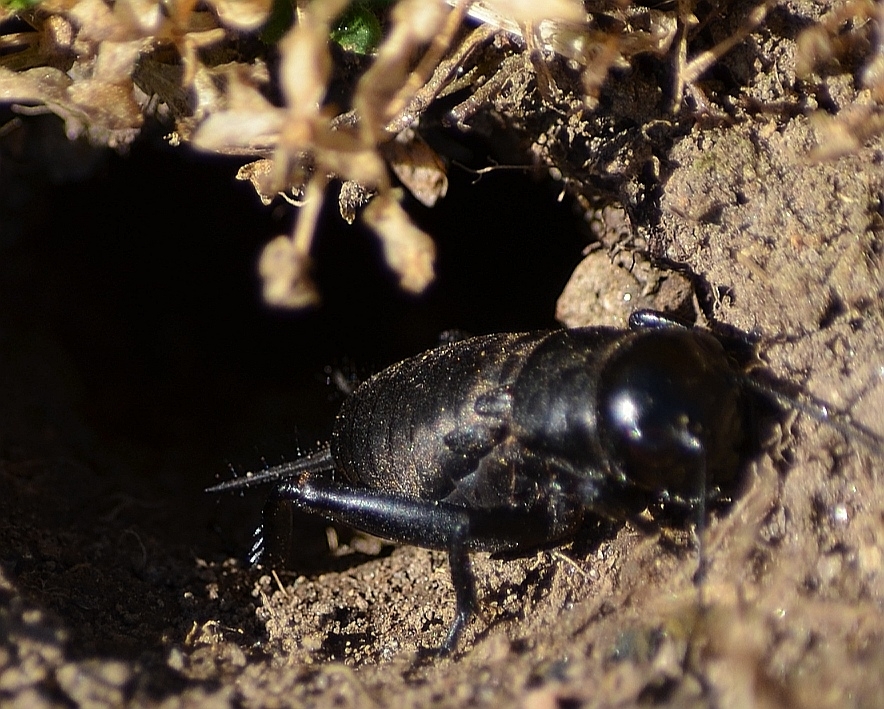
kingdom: Animalia
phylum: Arthropoda
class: Insecta
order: Orthoptera
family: Gryllidae
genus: Gryllus
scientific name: Gryllus campestris
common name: Field cricket
